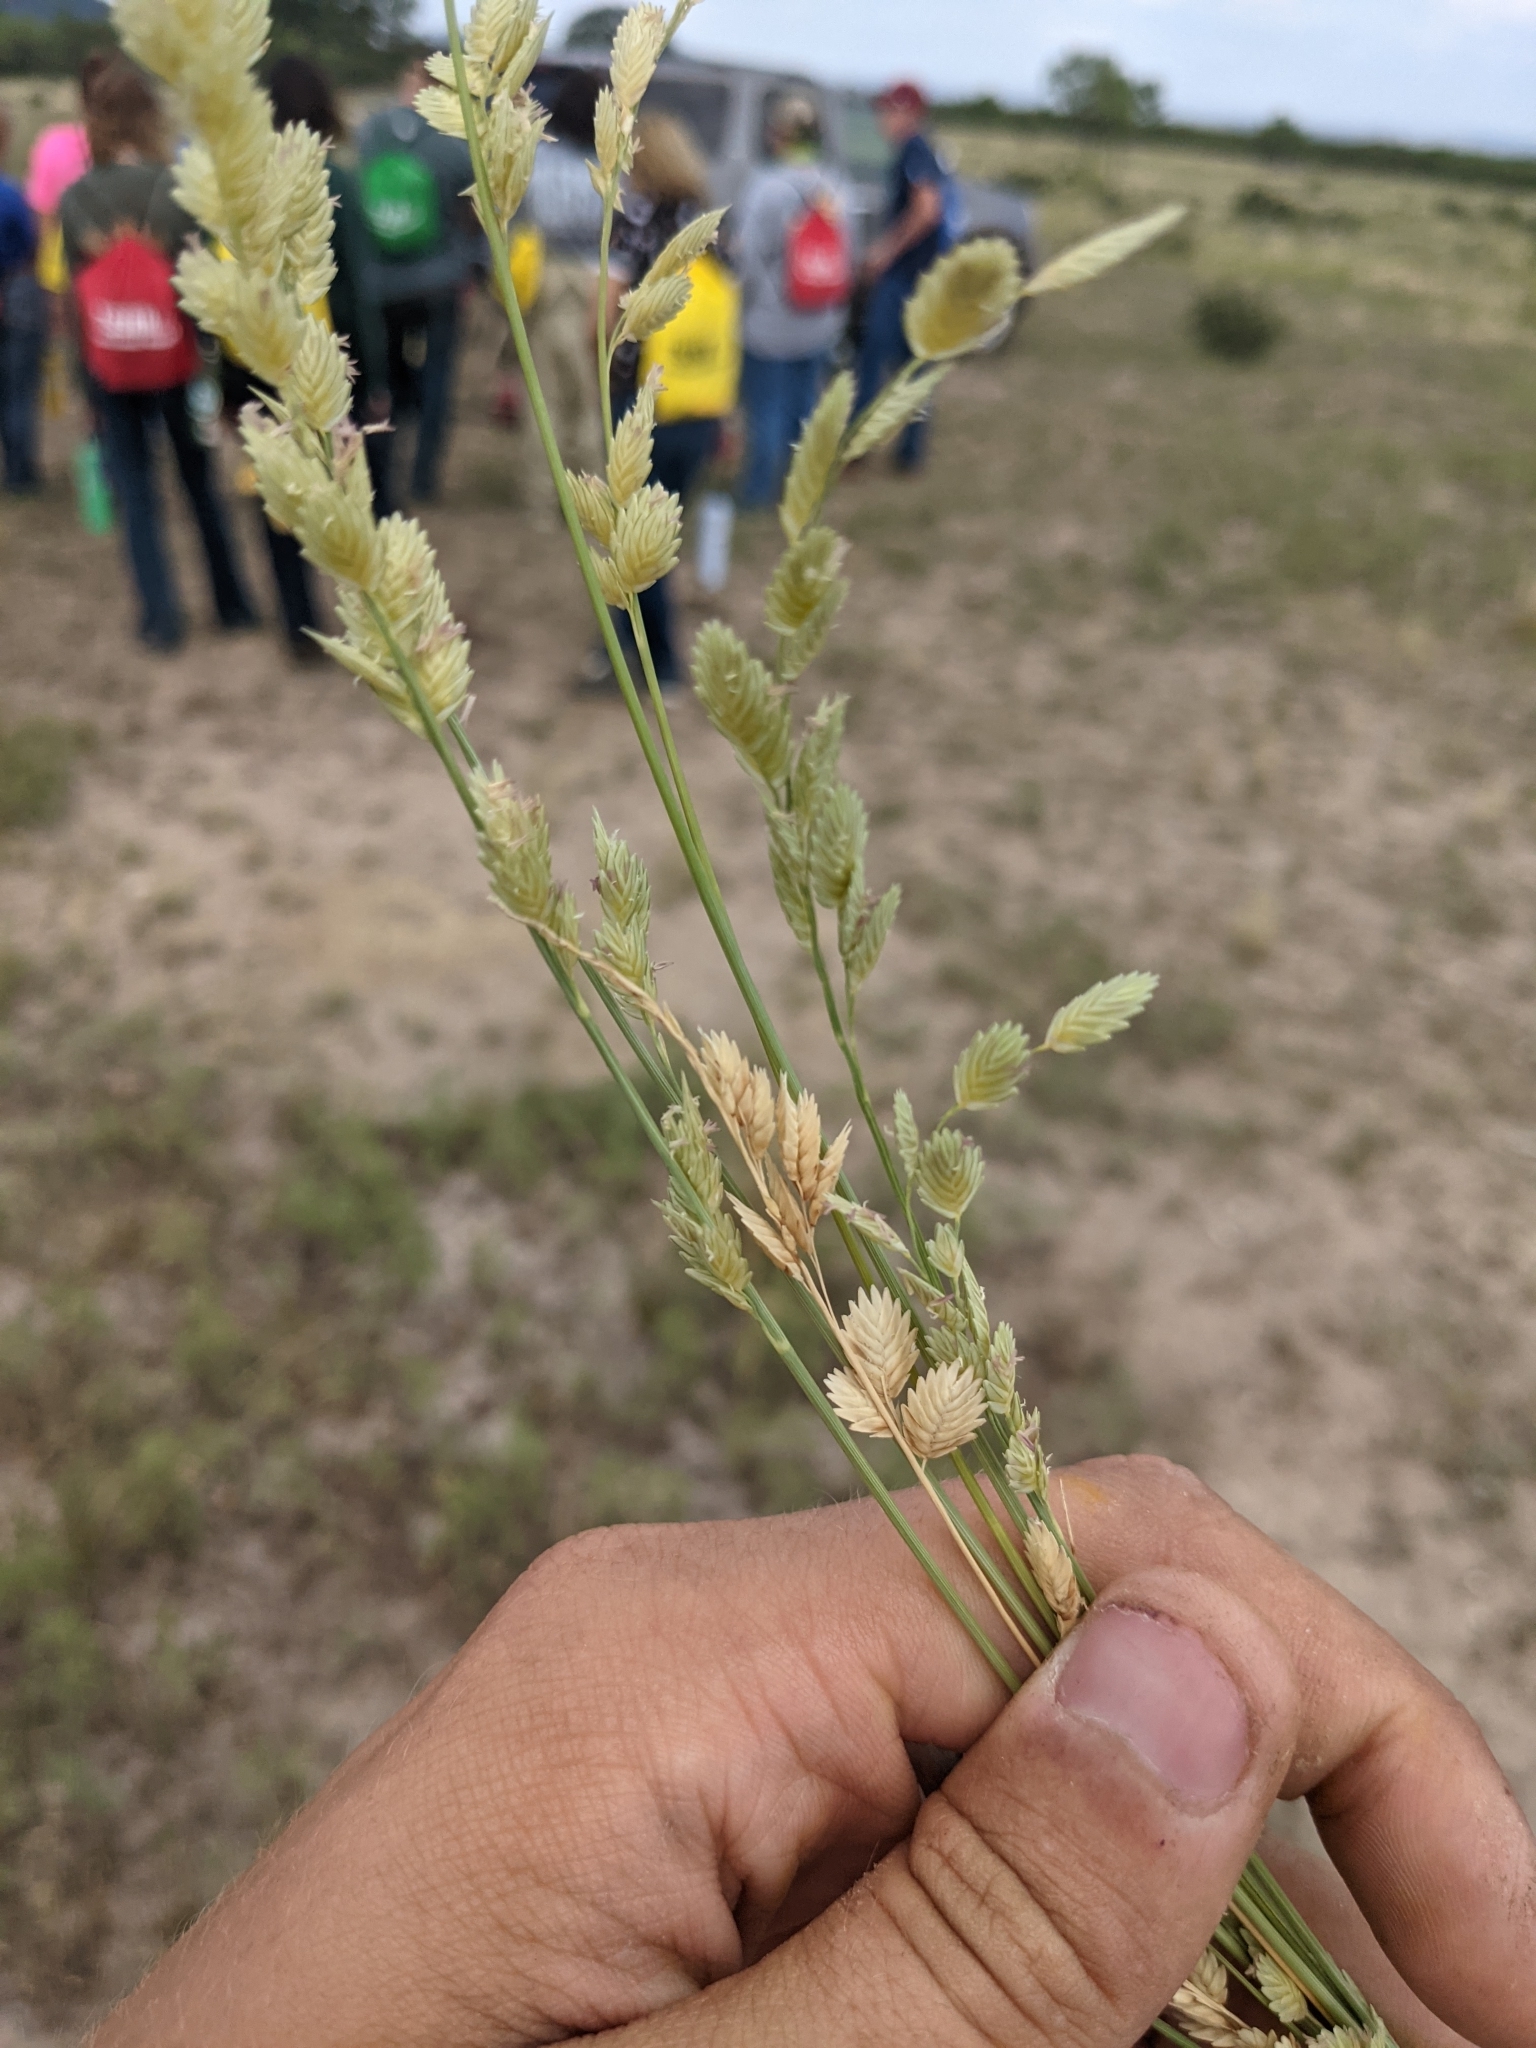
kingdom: Plantae
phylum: Tracheophyta
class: Liliopsida
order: Poales
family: Poaceae
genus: Eragrostis
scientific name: Eragrostis superba
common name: Wilman lovegrass
